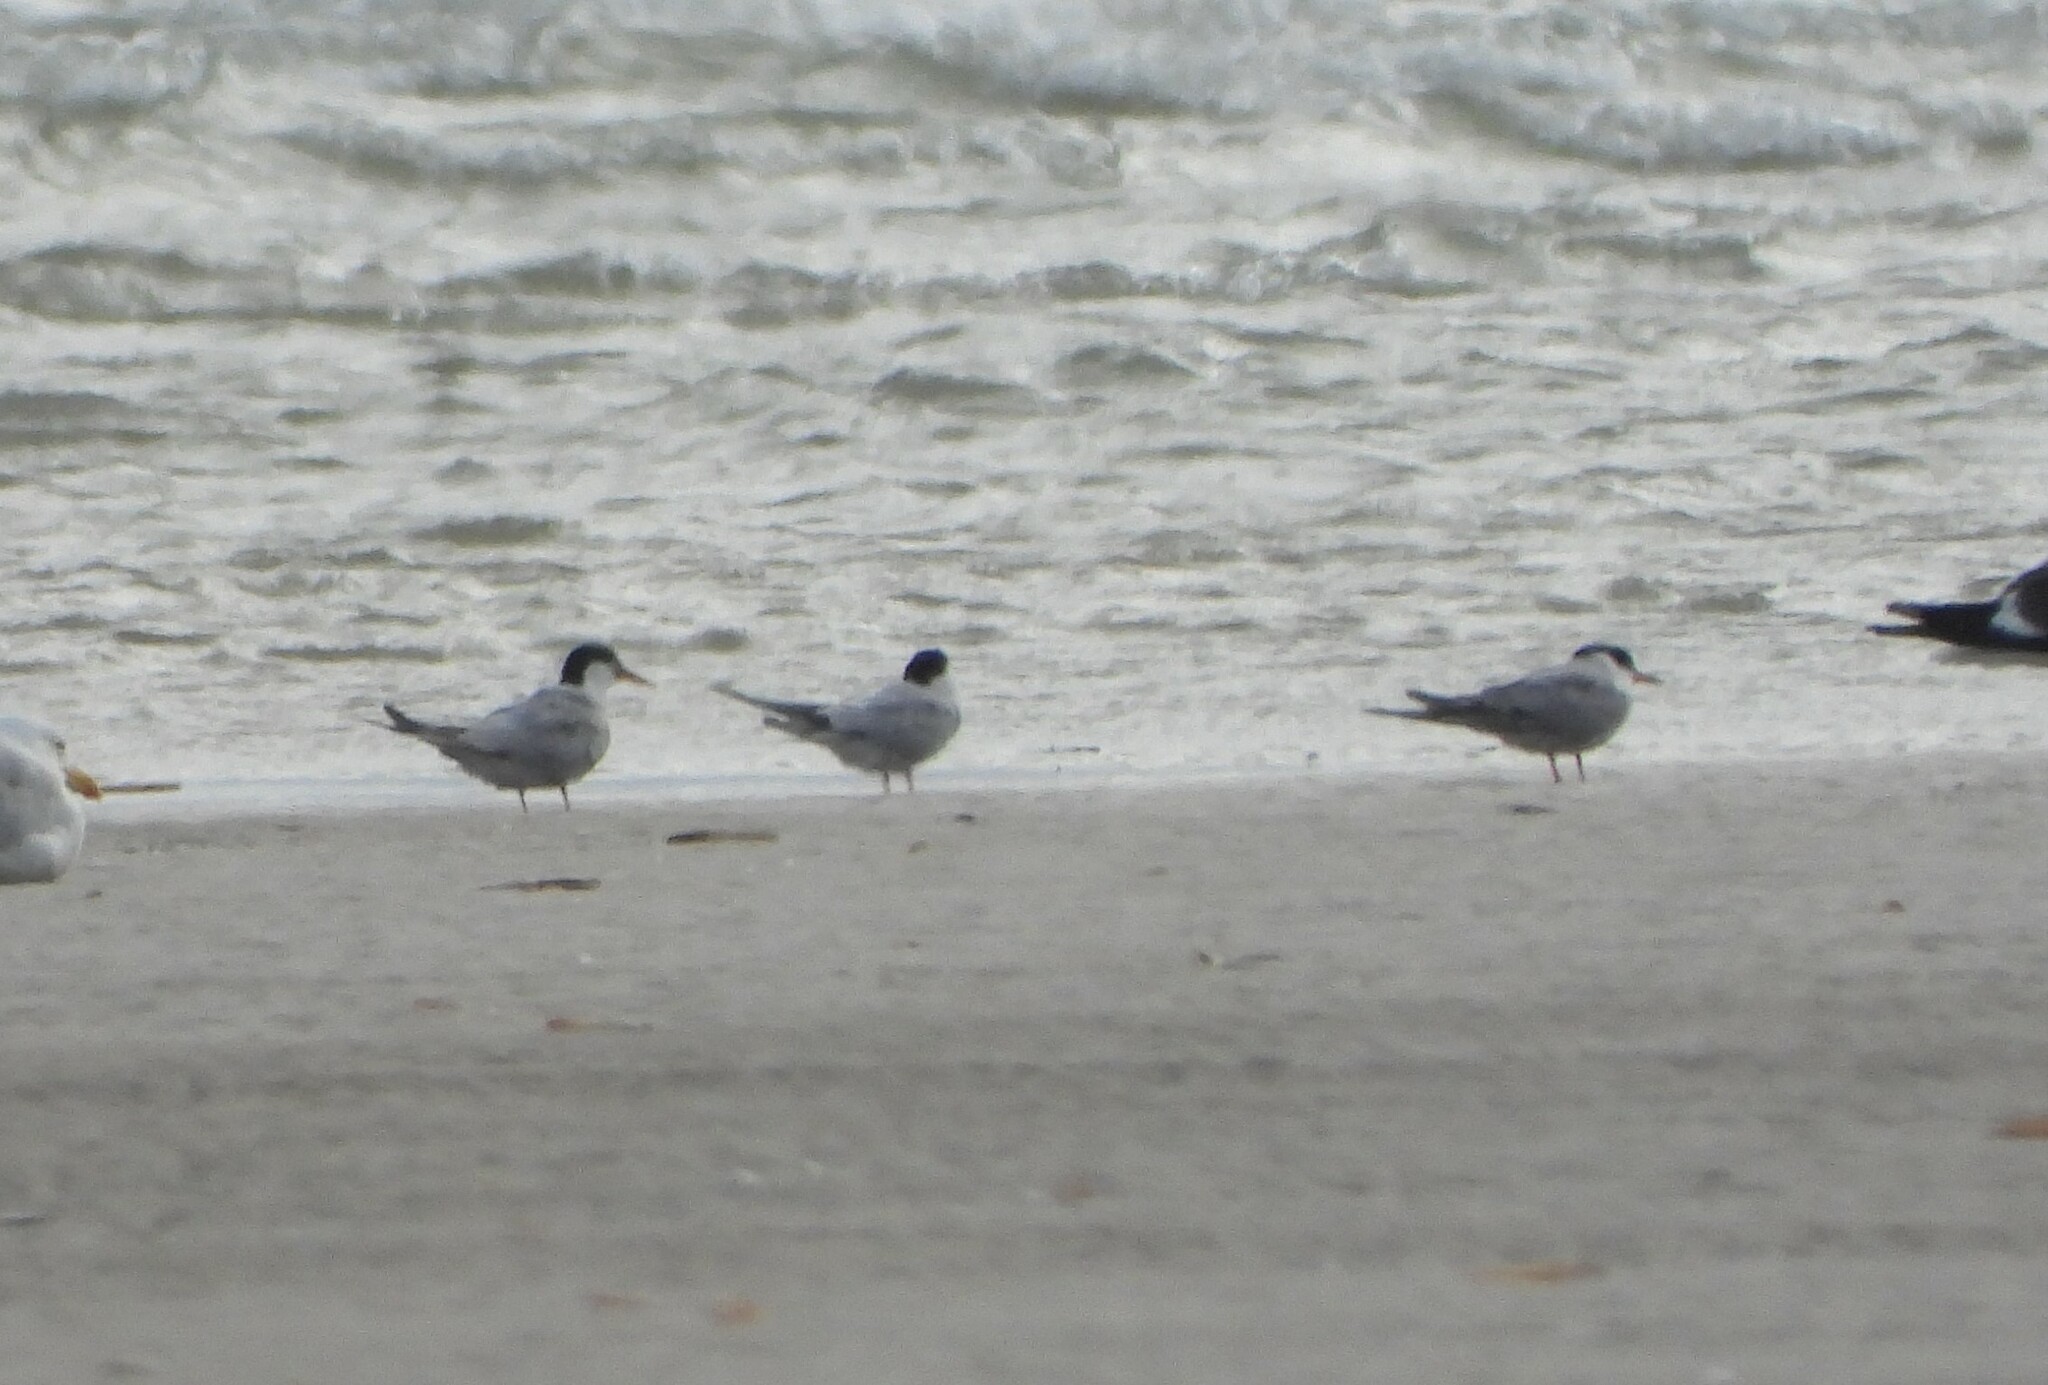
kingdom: Animalia
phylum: Chordata
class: Aves
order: Charadriiformes
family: Laridae
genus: Sterna
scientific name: Sterna hirundo
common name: Common tern
